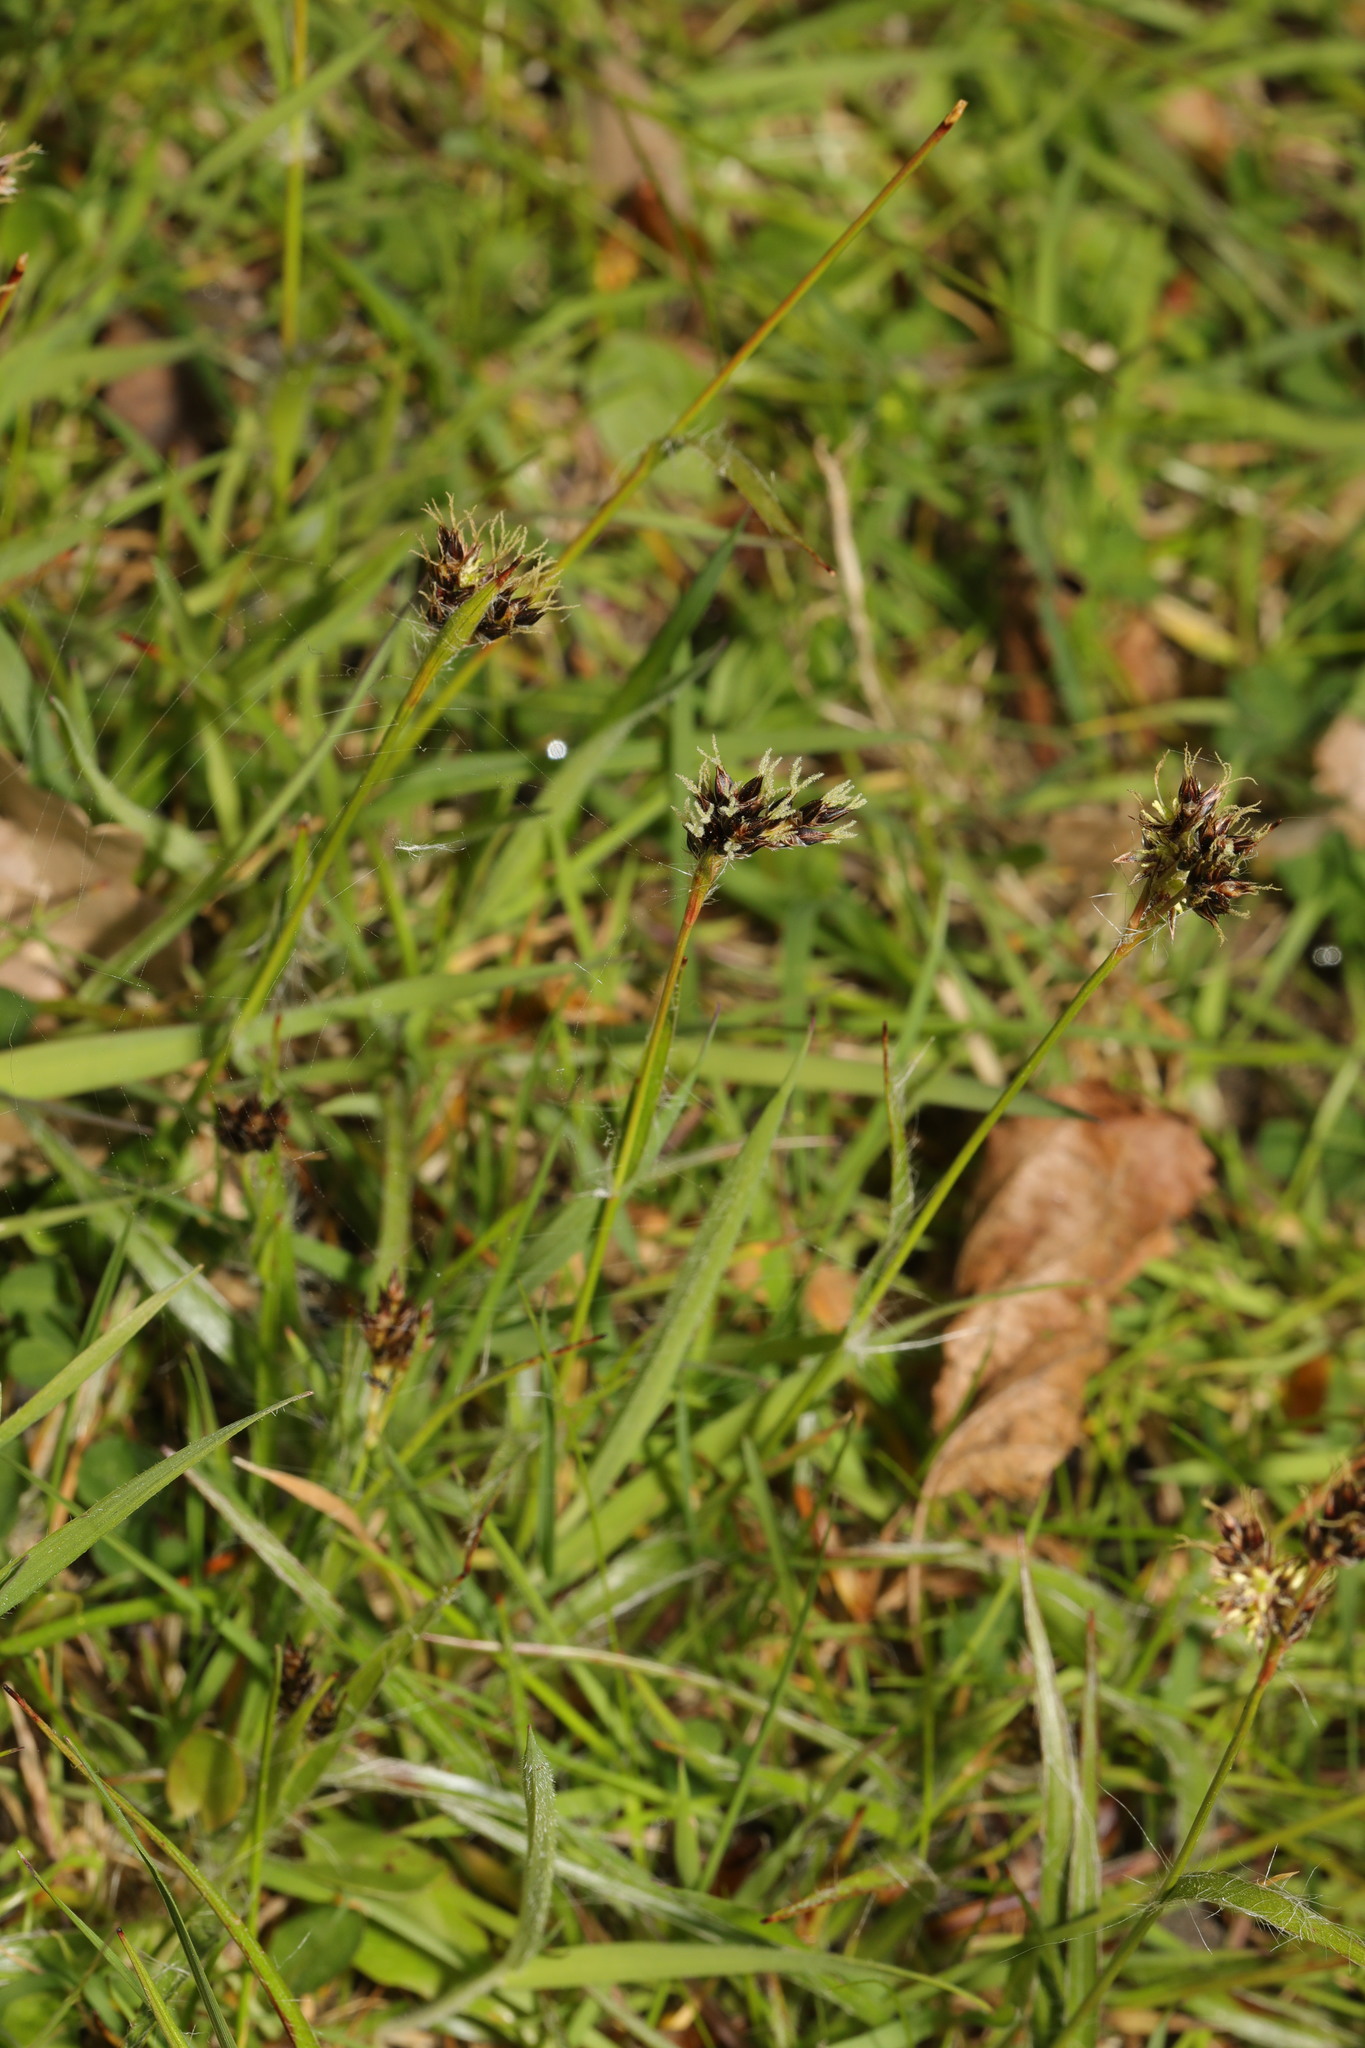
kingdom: Plantae
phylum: Tracheophyta
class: Liliopsida
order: Poales
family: Juncaceae
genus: Luzula
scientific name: Luzula campestris
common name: Field wood-rush
